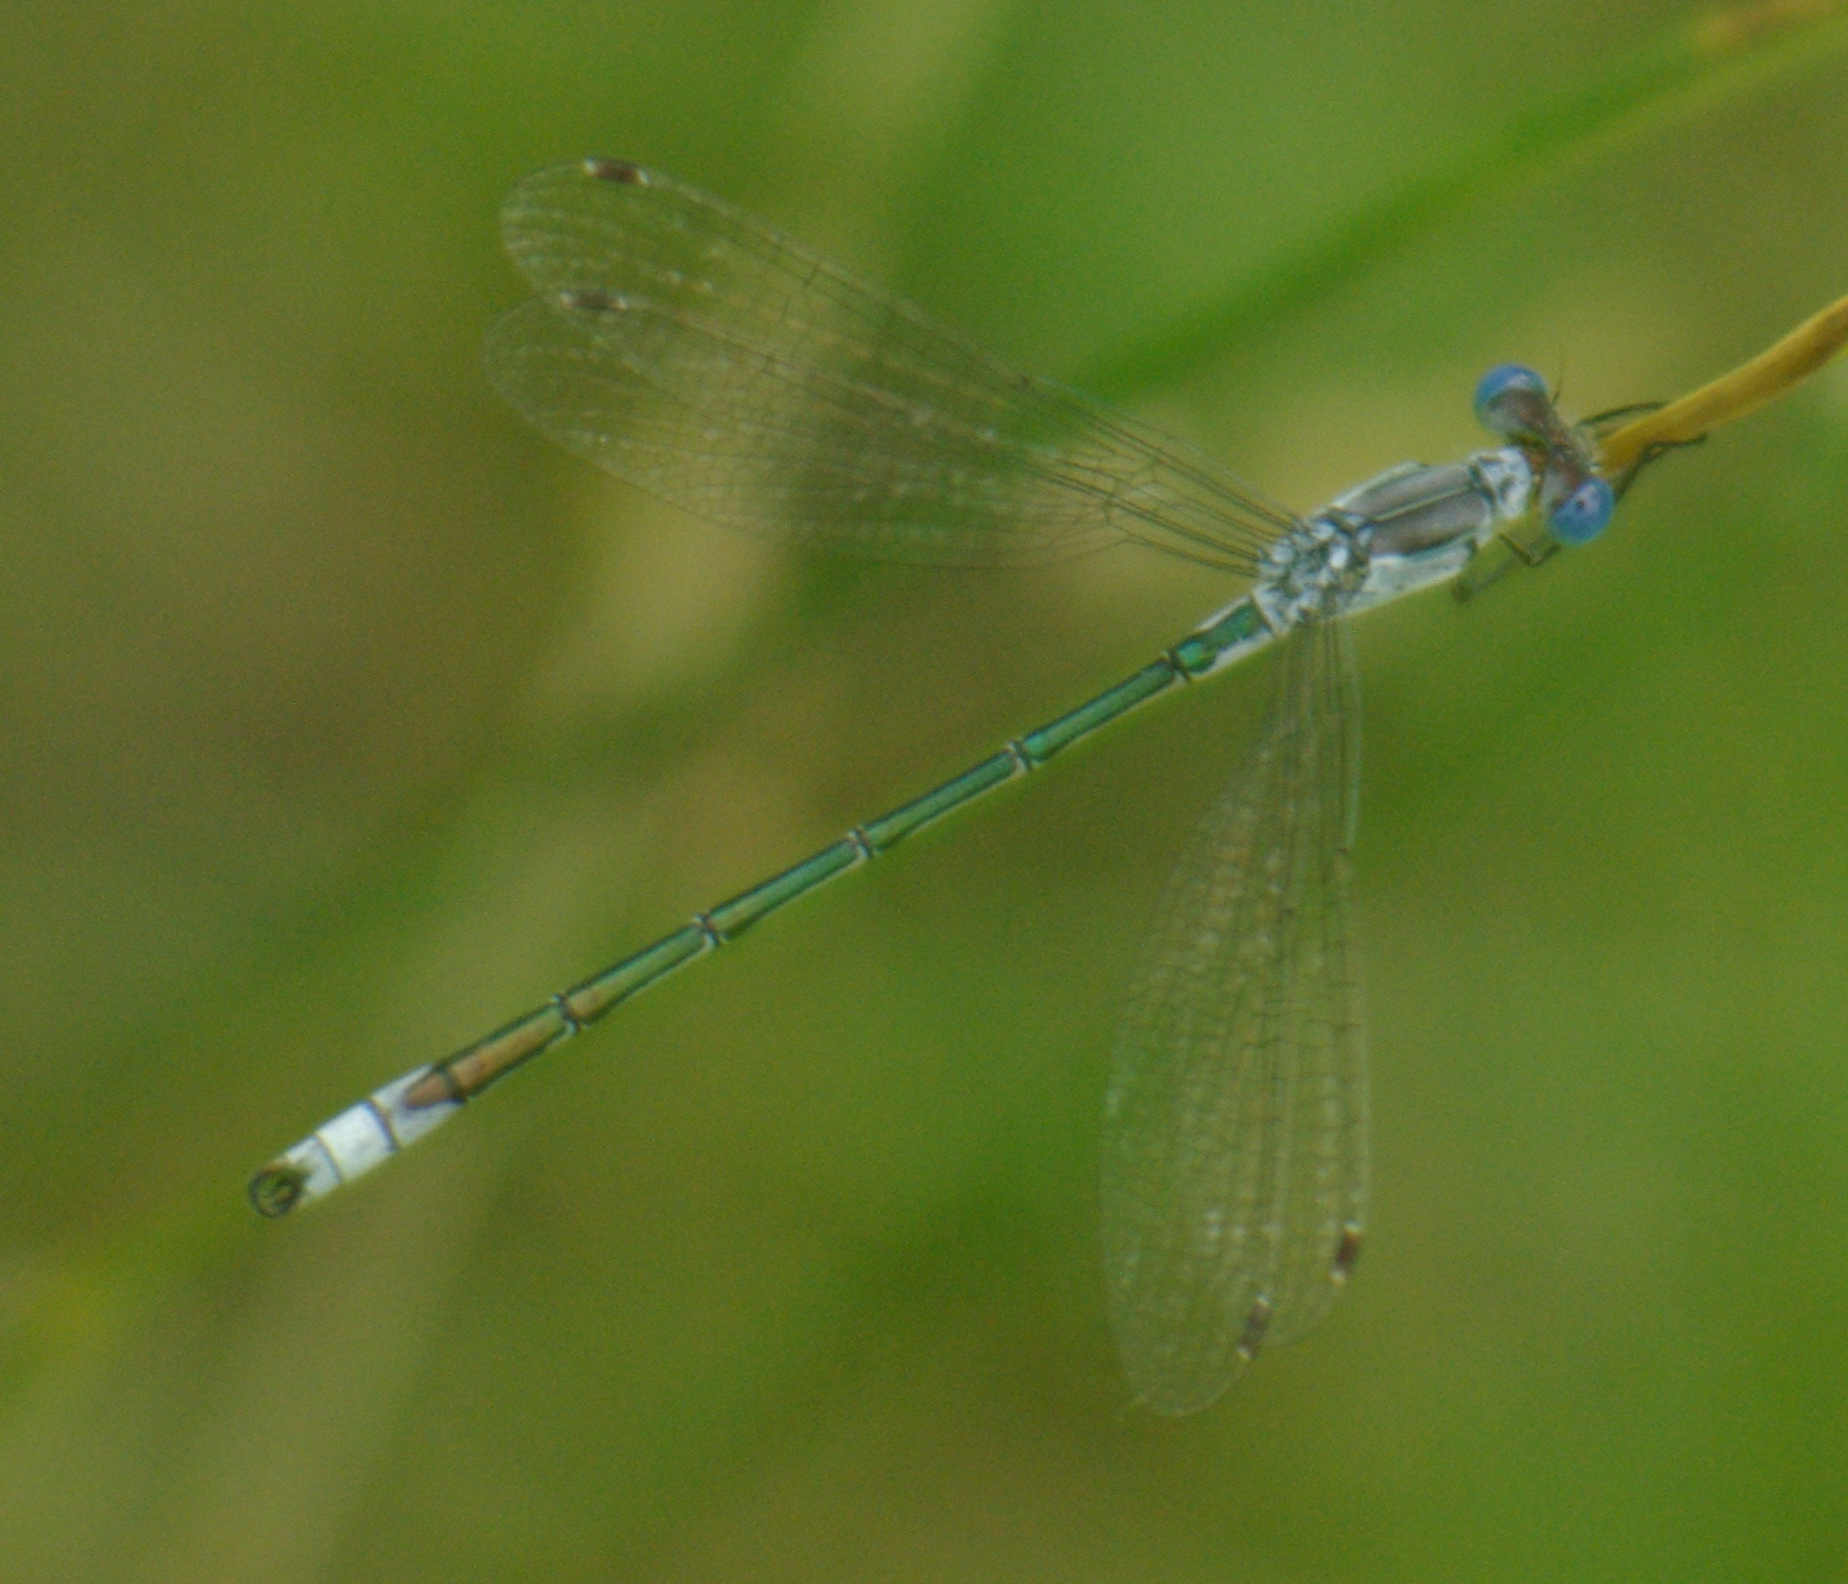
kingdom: Animalia
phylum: Arthropoda
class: Insecta
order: Odonata
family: Lestidae
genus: Lestes
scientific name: Lestes unguiculatus
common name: Lyre-tipped spreadwing
